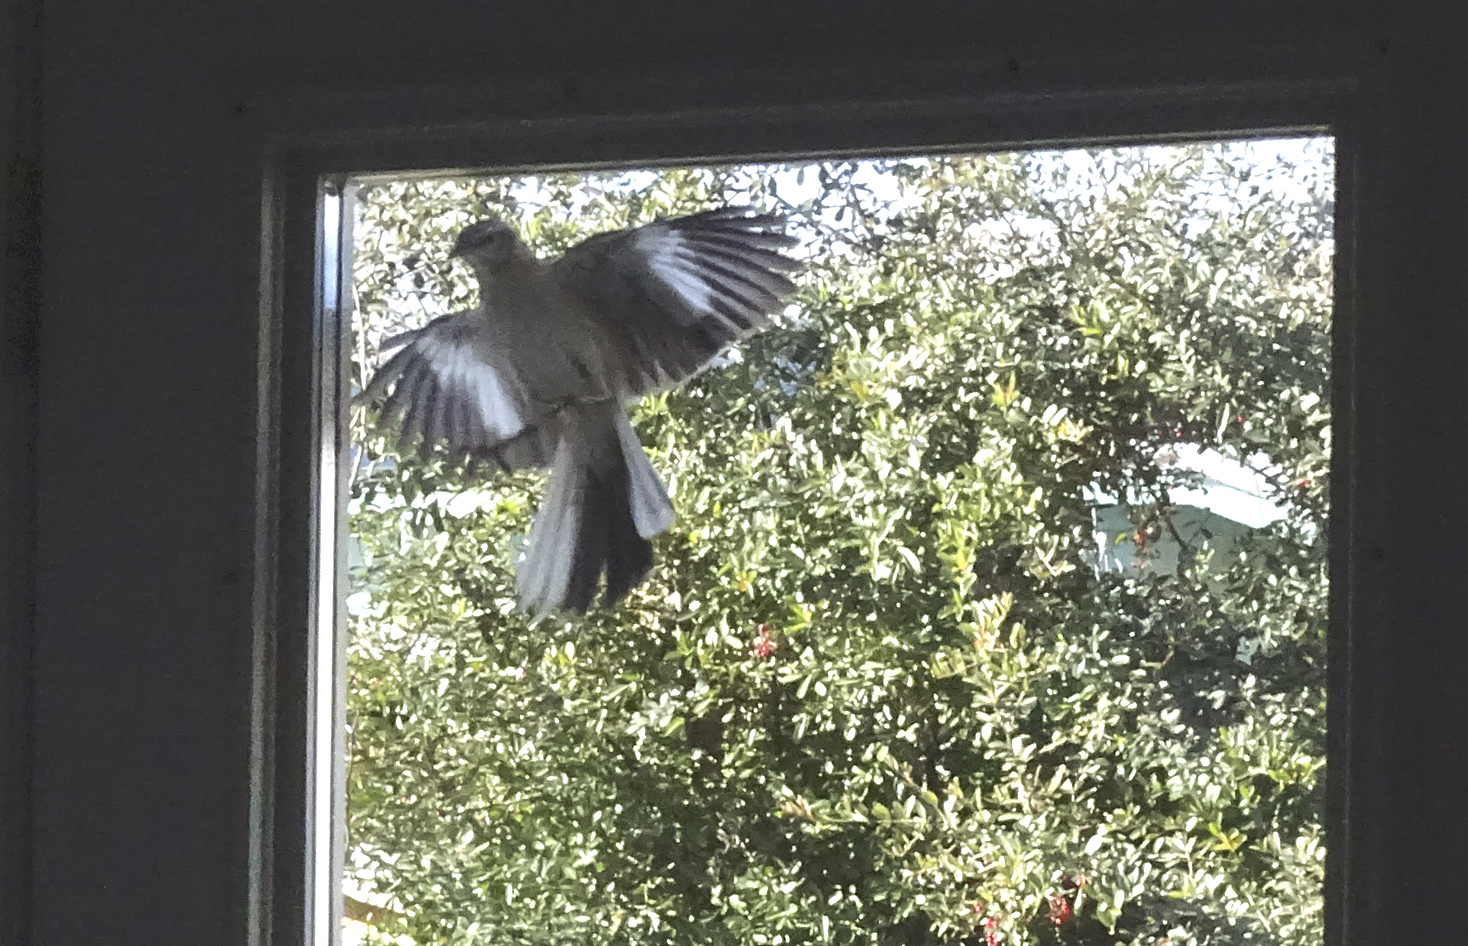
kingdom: Animalia
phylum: Chordata
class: Aves
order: Passeriformes
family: Mimidae
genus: Mimus
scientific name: Mimus polyglottos
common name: Northern mockingbird
